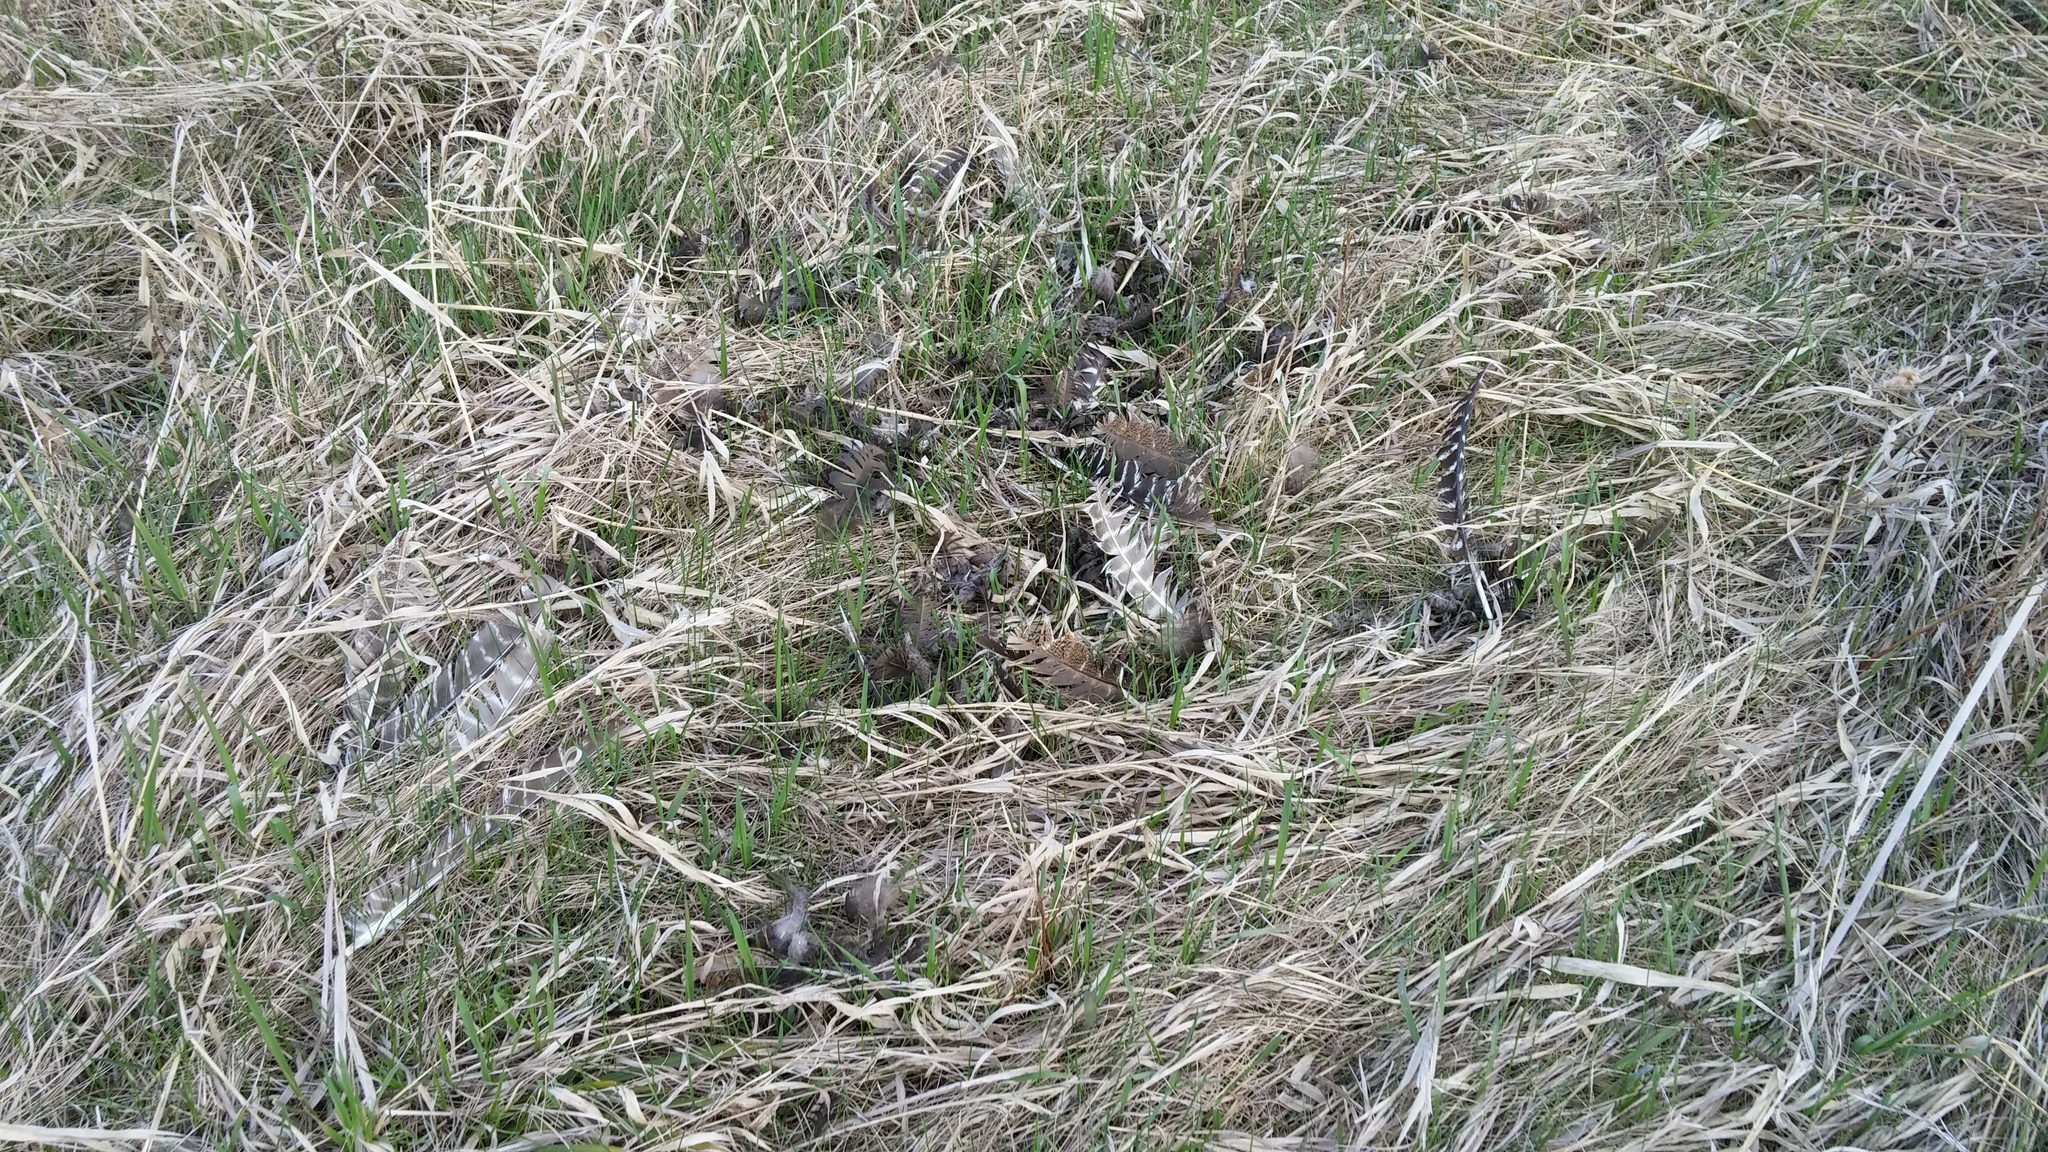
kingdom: Animalia
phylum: Chordata
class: Aves
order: Galliformes
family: Phasianidae
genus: Meleagris
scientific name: Meleagris gallopavo
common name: Wild turkey
